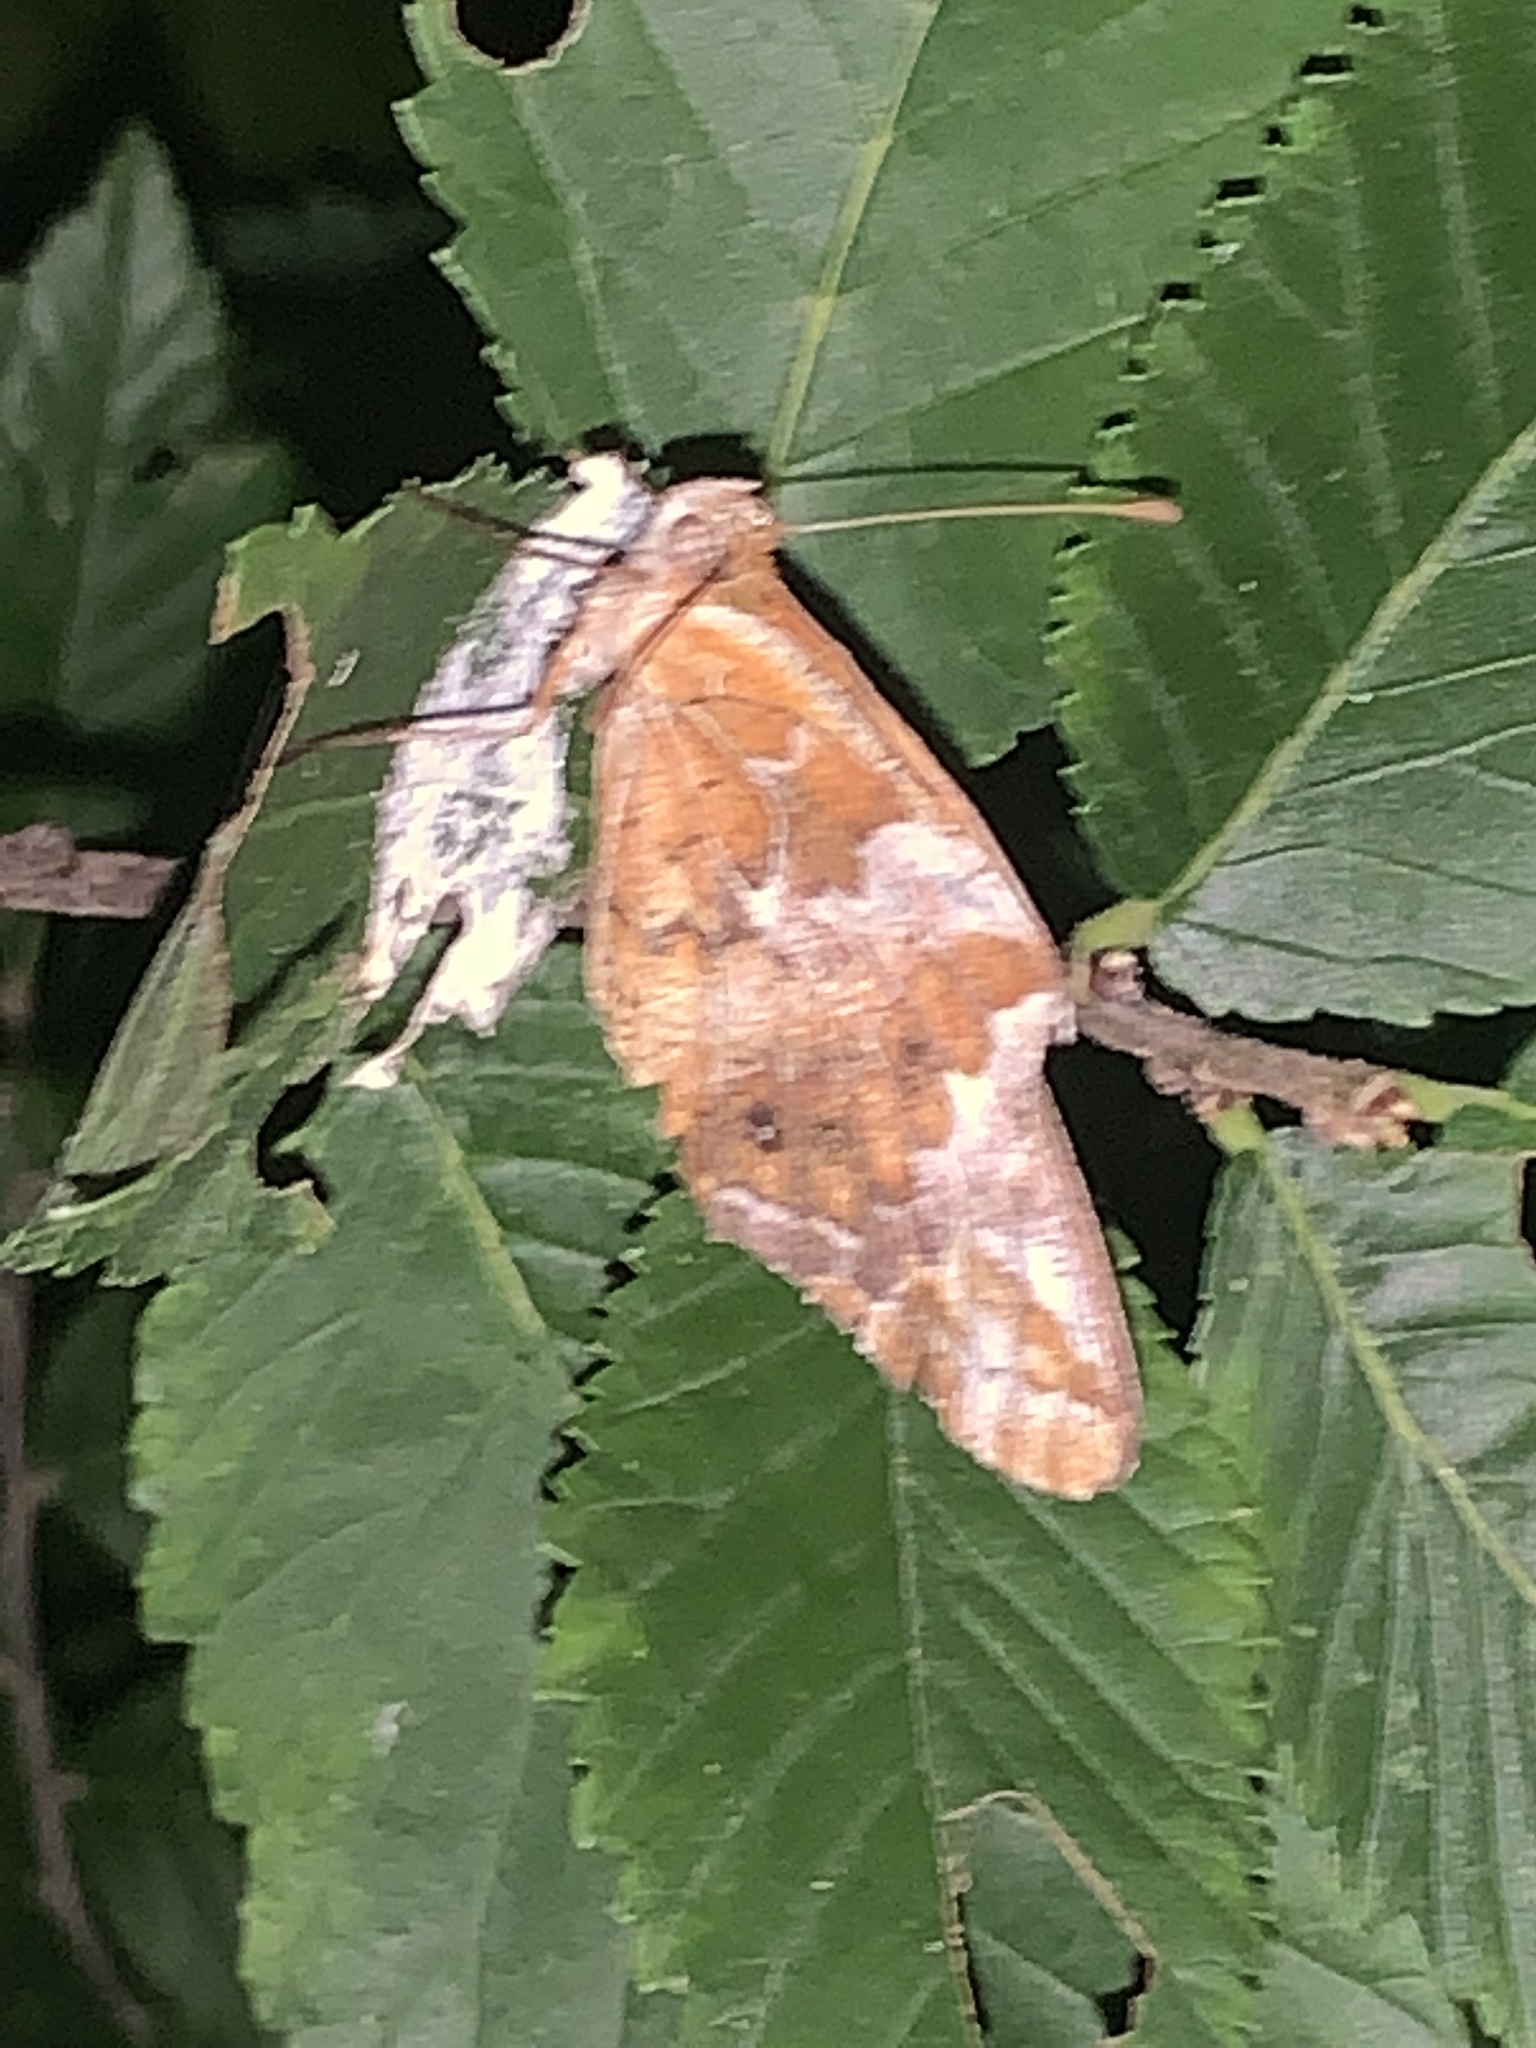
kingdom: Animalia
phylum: Arthropoda
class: Insecta
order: Lepidoptera
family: Nymphalidae
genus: Euptoieta
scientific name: Euptoieta claudia
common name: Variegated fritillary
